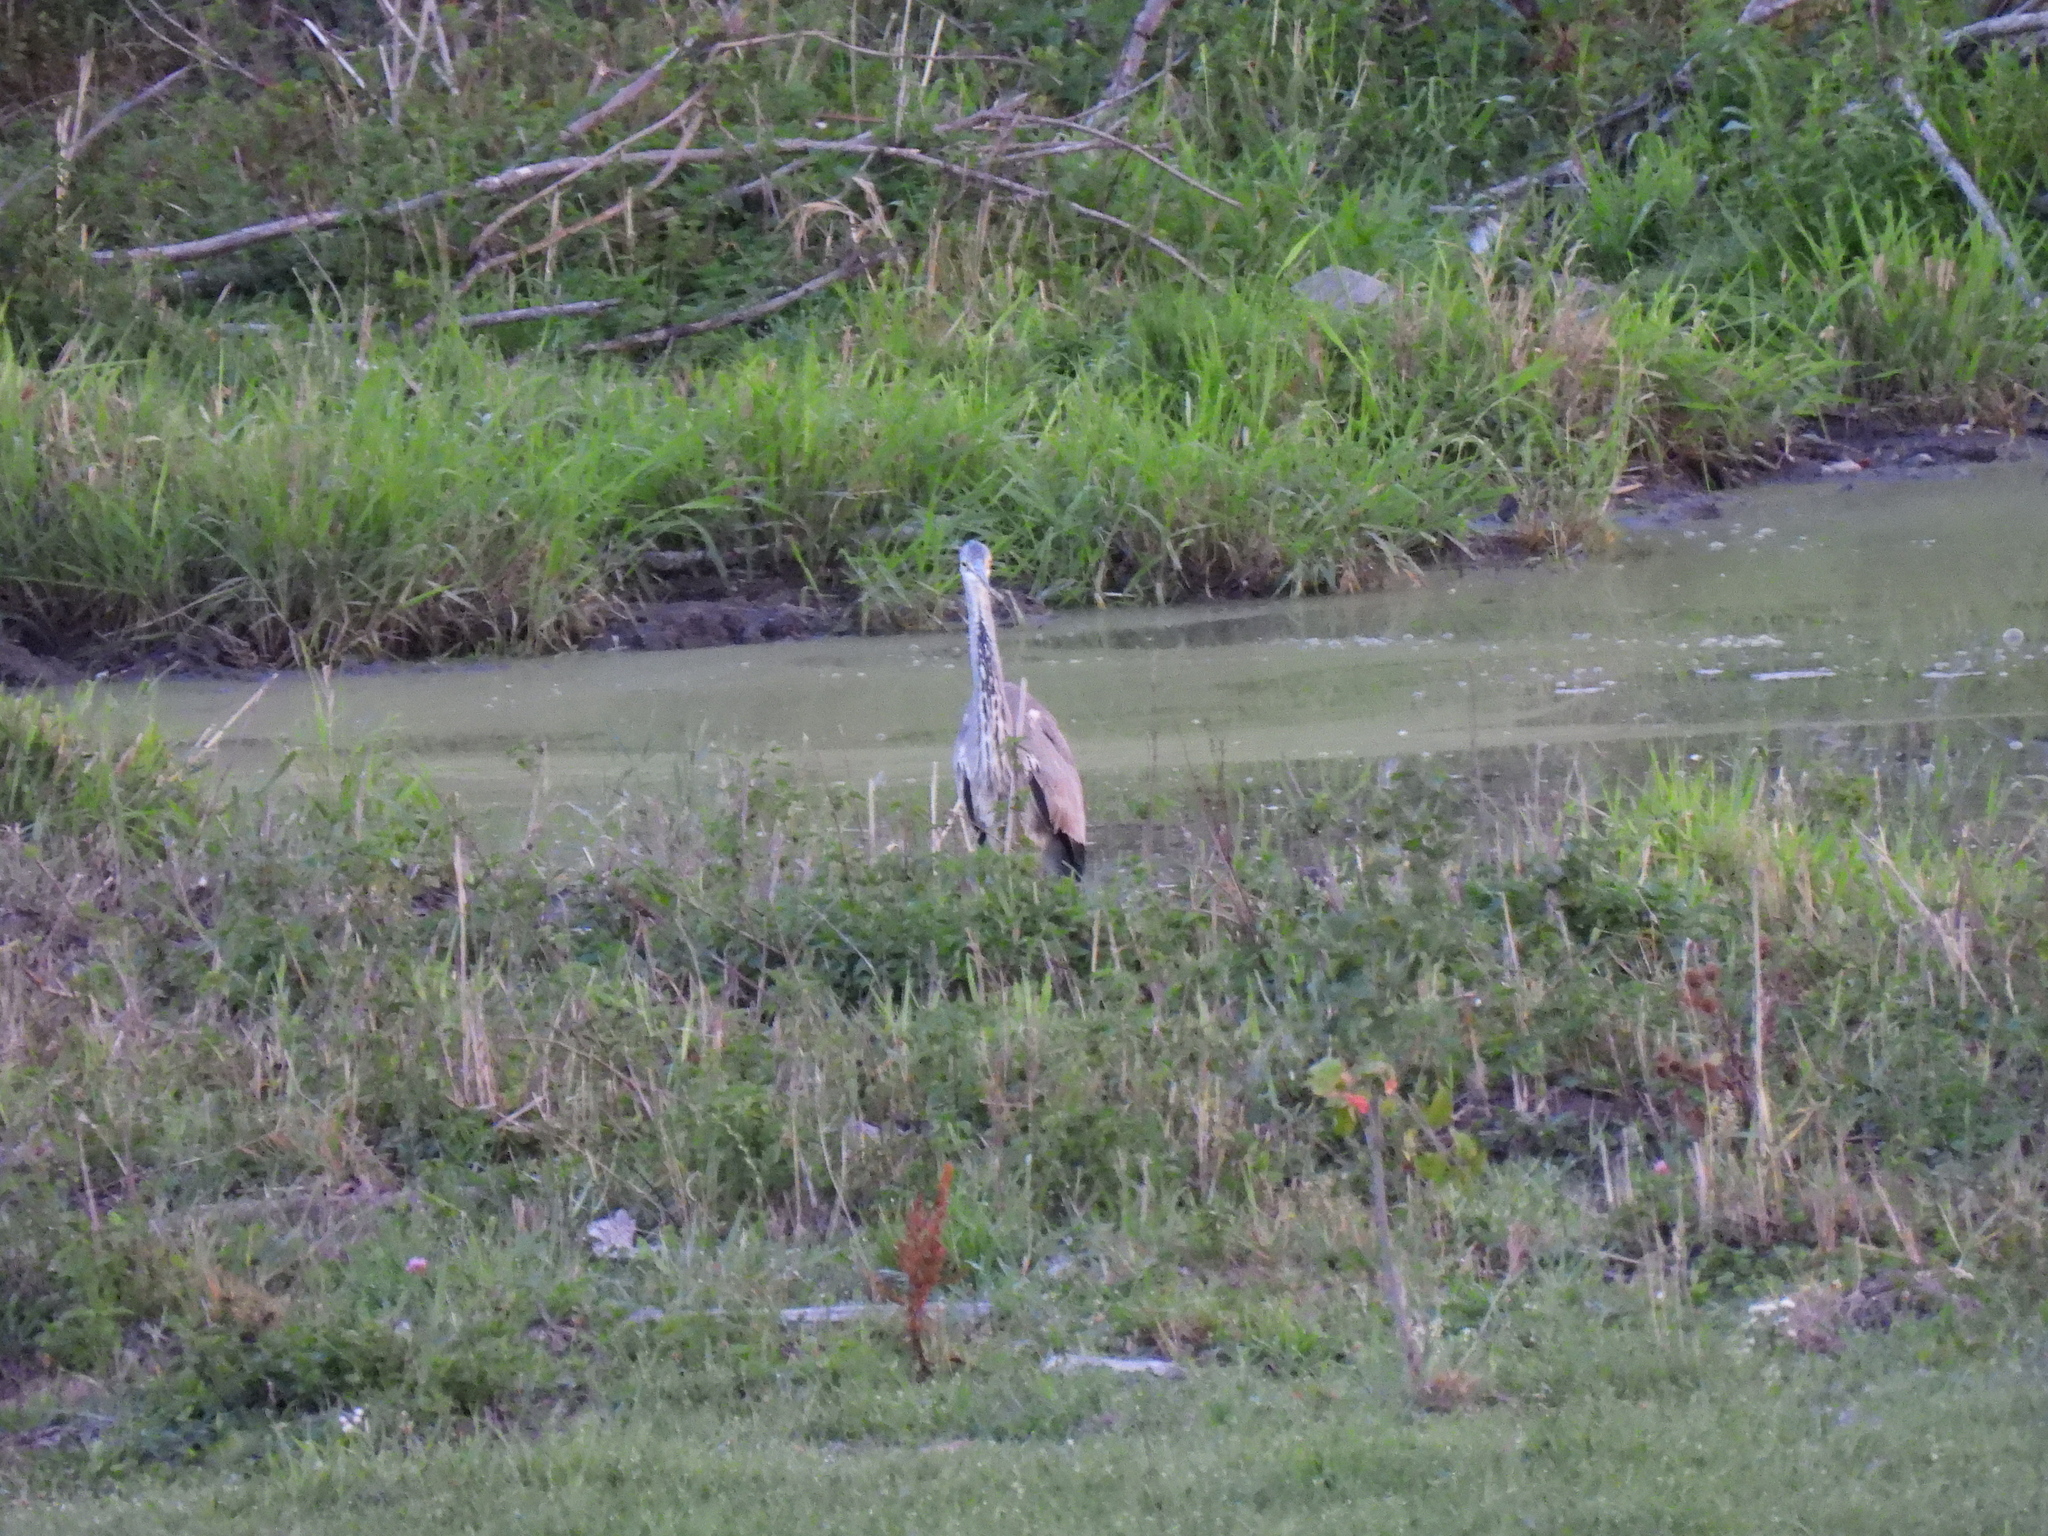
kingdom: Animalia
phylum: Chordata
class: Aves
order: Pelecaniformes
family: Ardeidae
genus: Ardea
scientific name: Ardea cinerea
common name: Grey heron
